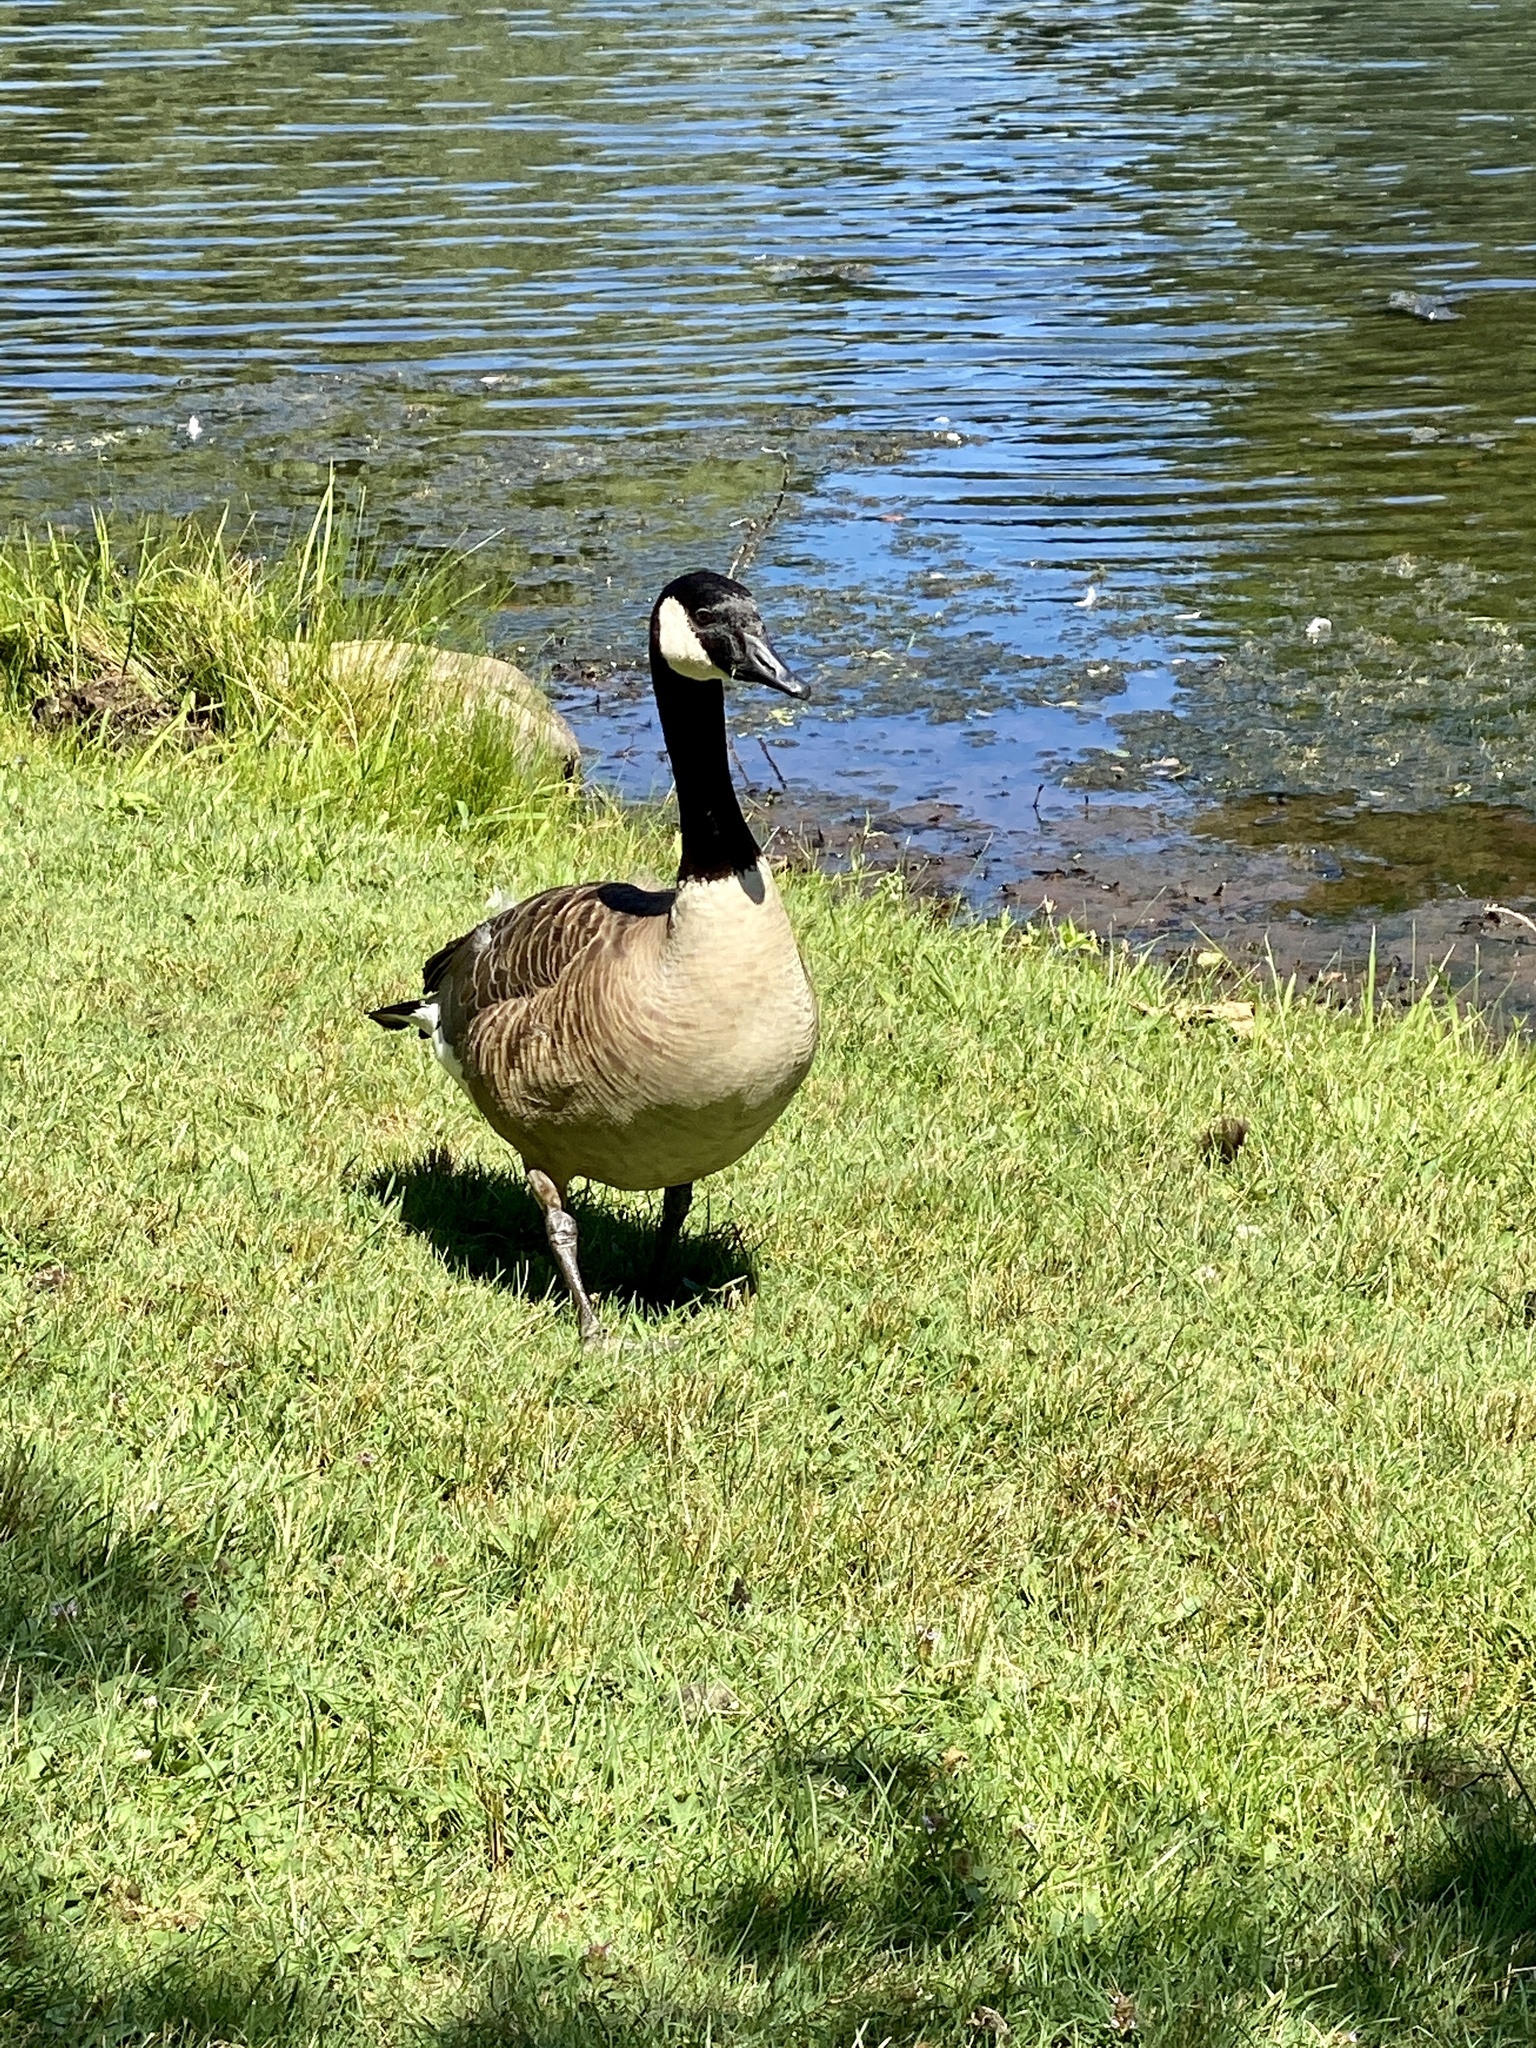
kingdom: Animalia
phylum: Chordata
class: Aves
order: Anseriformes
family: Anatidae
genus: Branta
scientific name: Branta canadensis
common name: Canada goose
